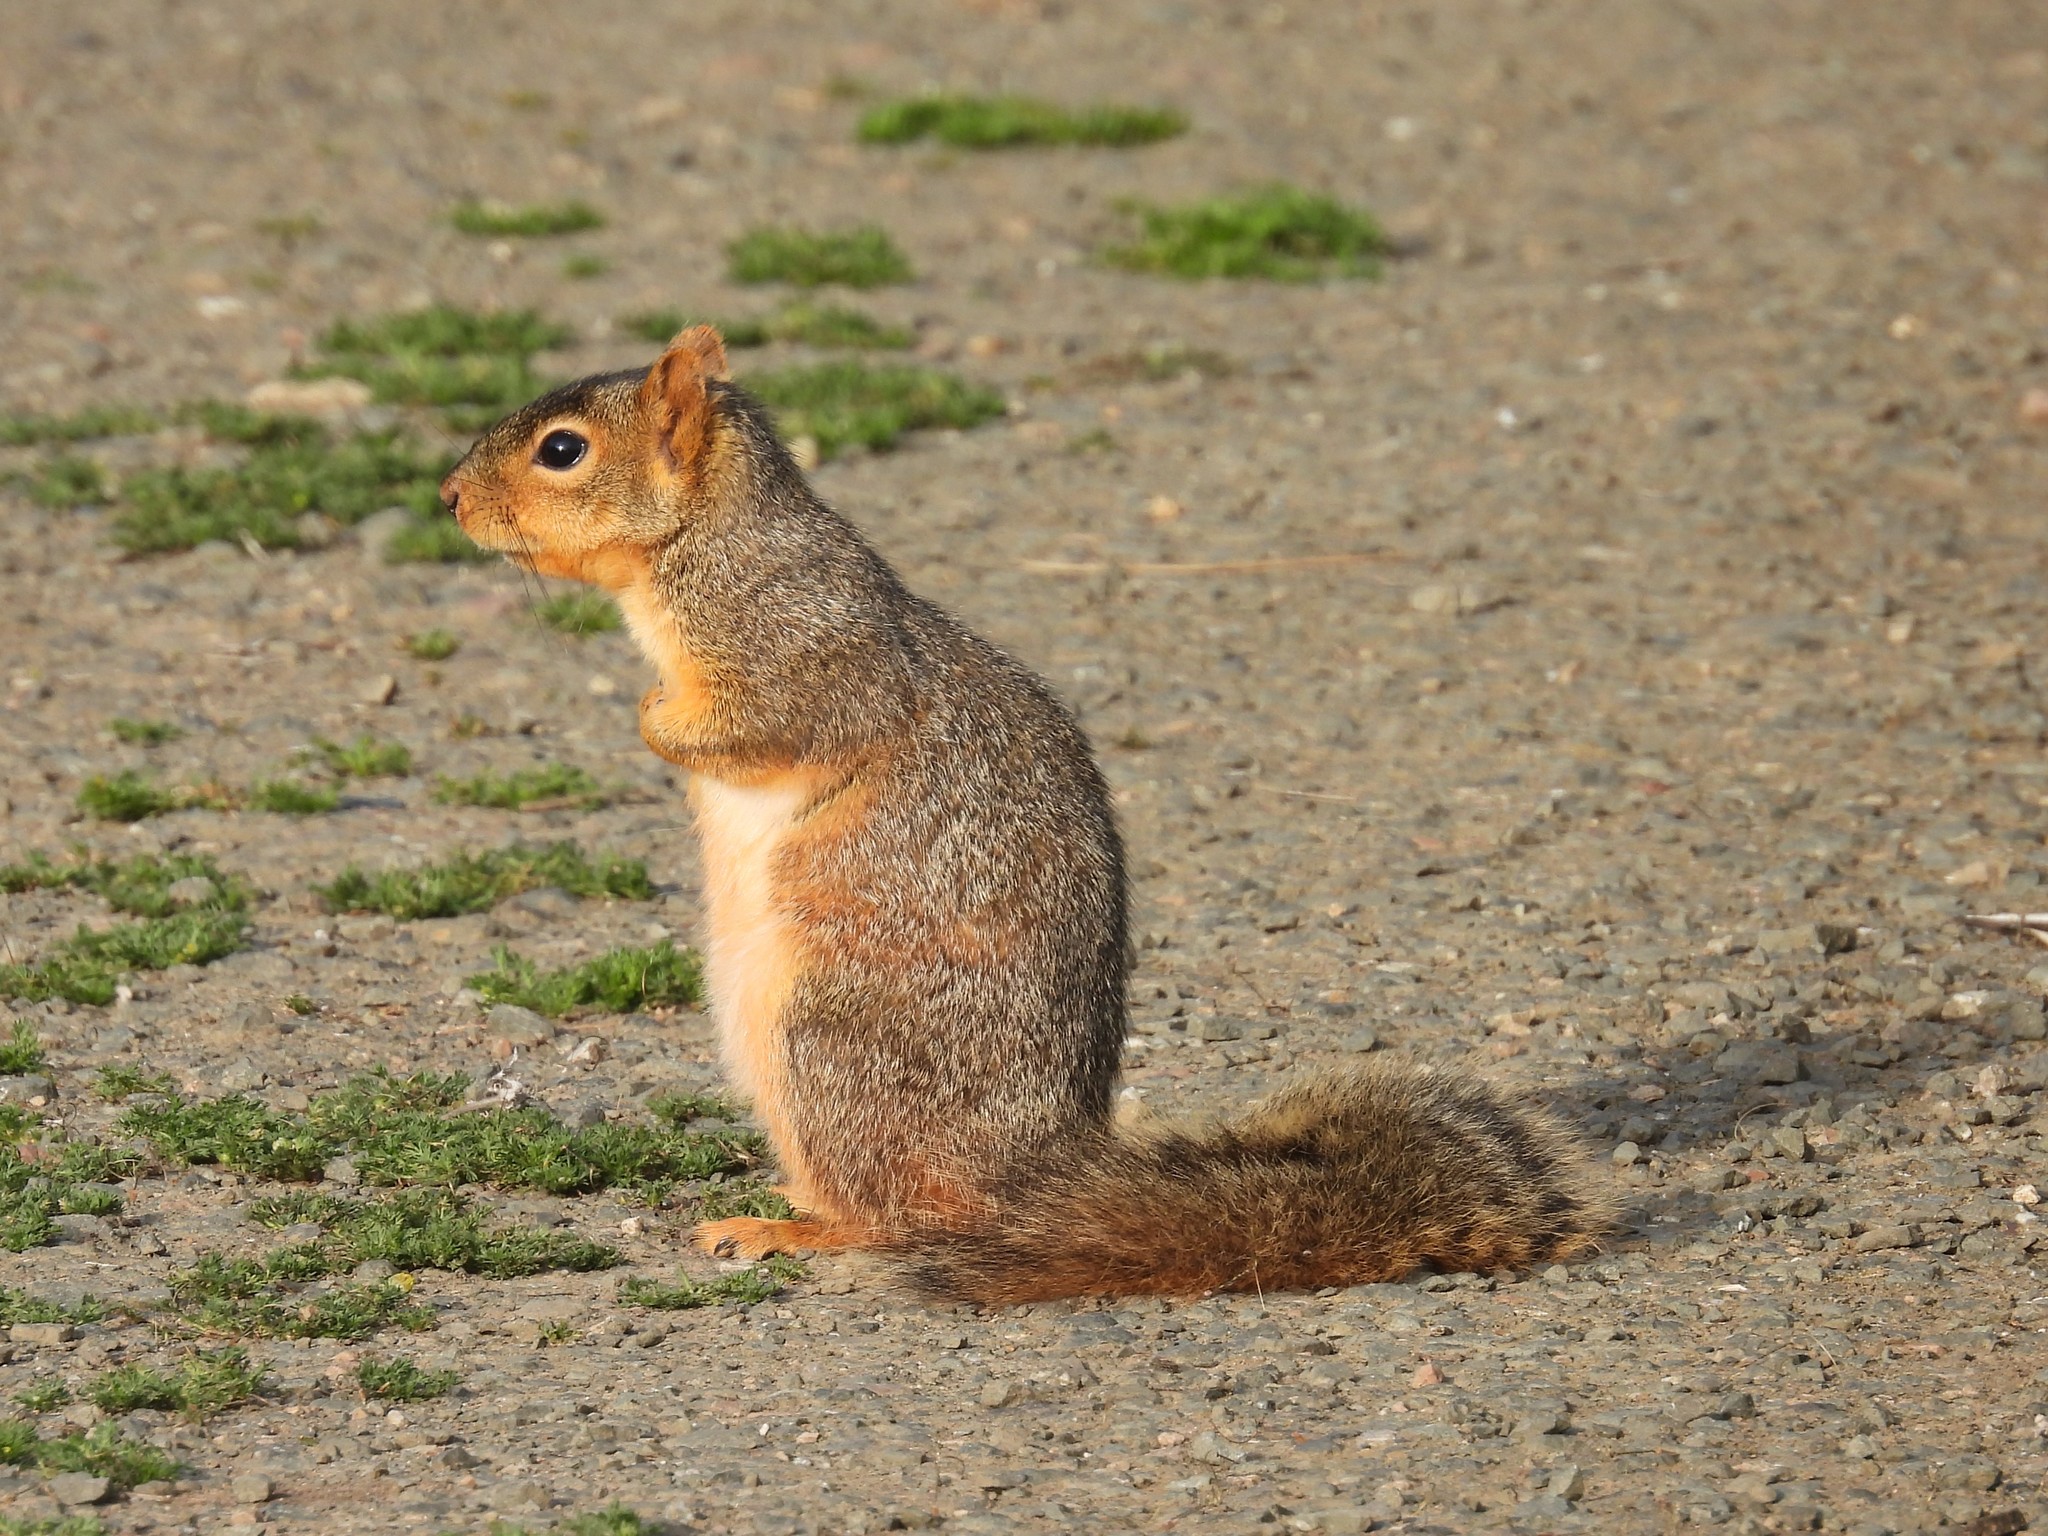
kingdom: Animalia
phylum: Chordata
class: Mammalia
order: Rodentia
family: Sciuridae
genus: Sciurus
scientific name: Sciurus niger
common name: Fox squirrel
